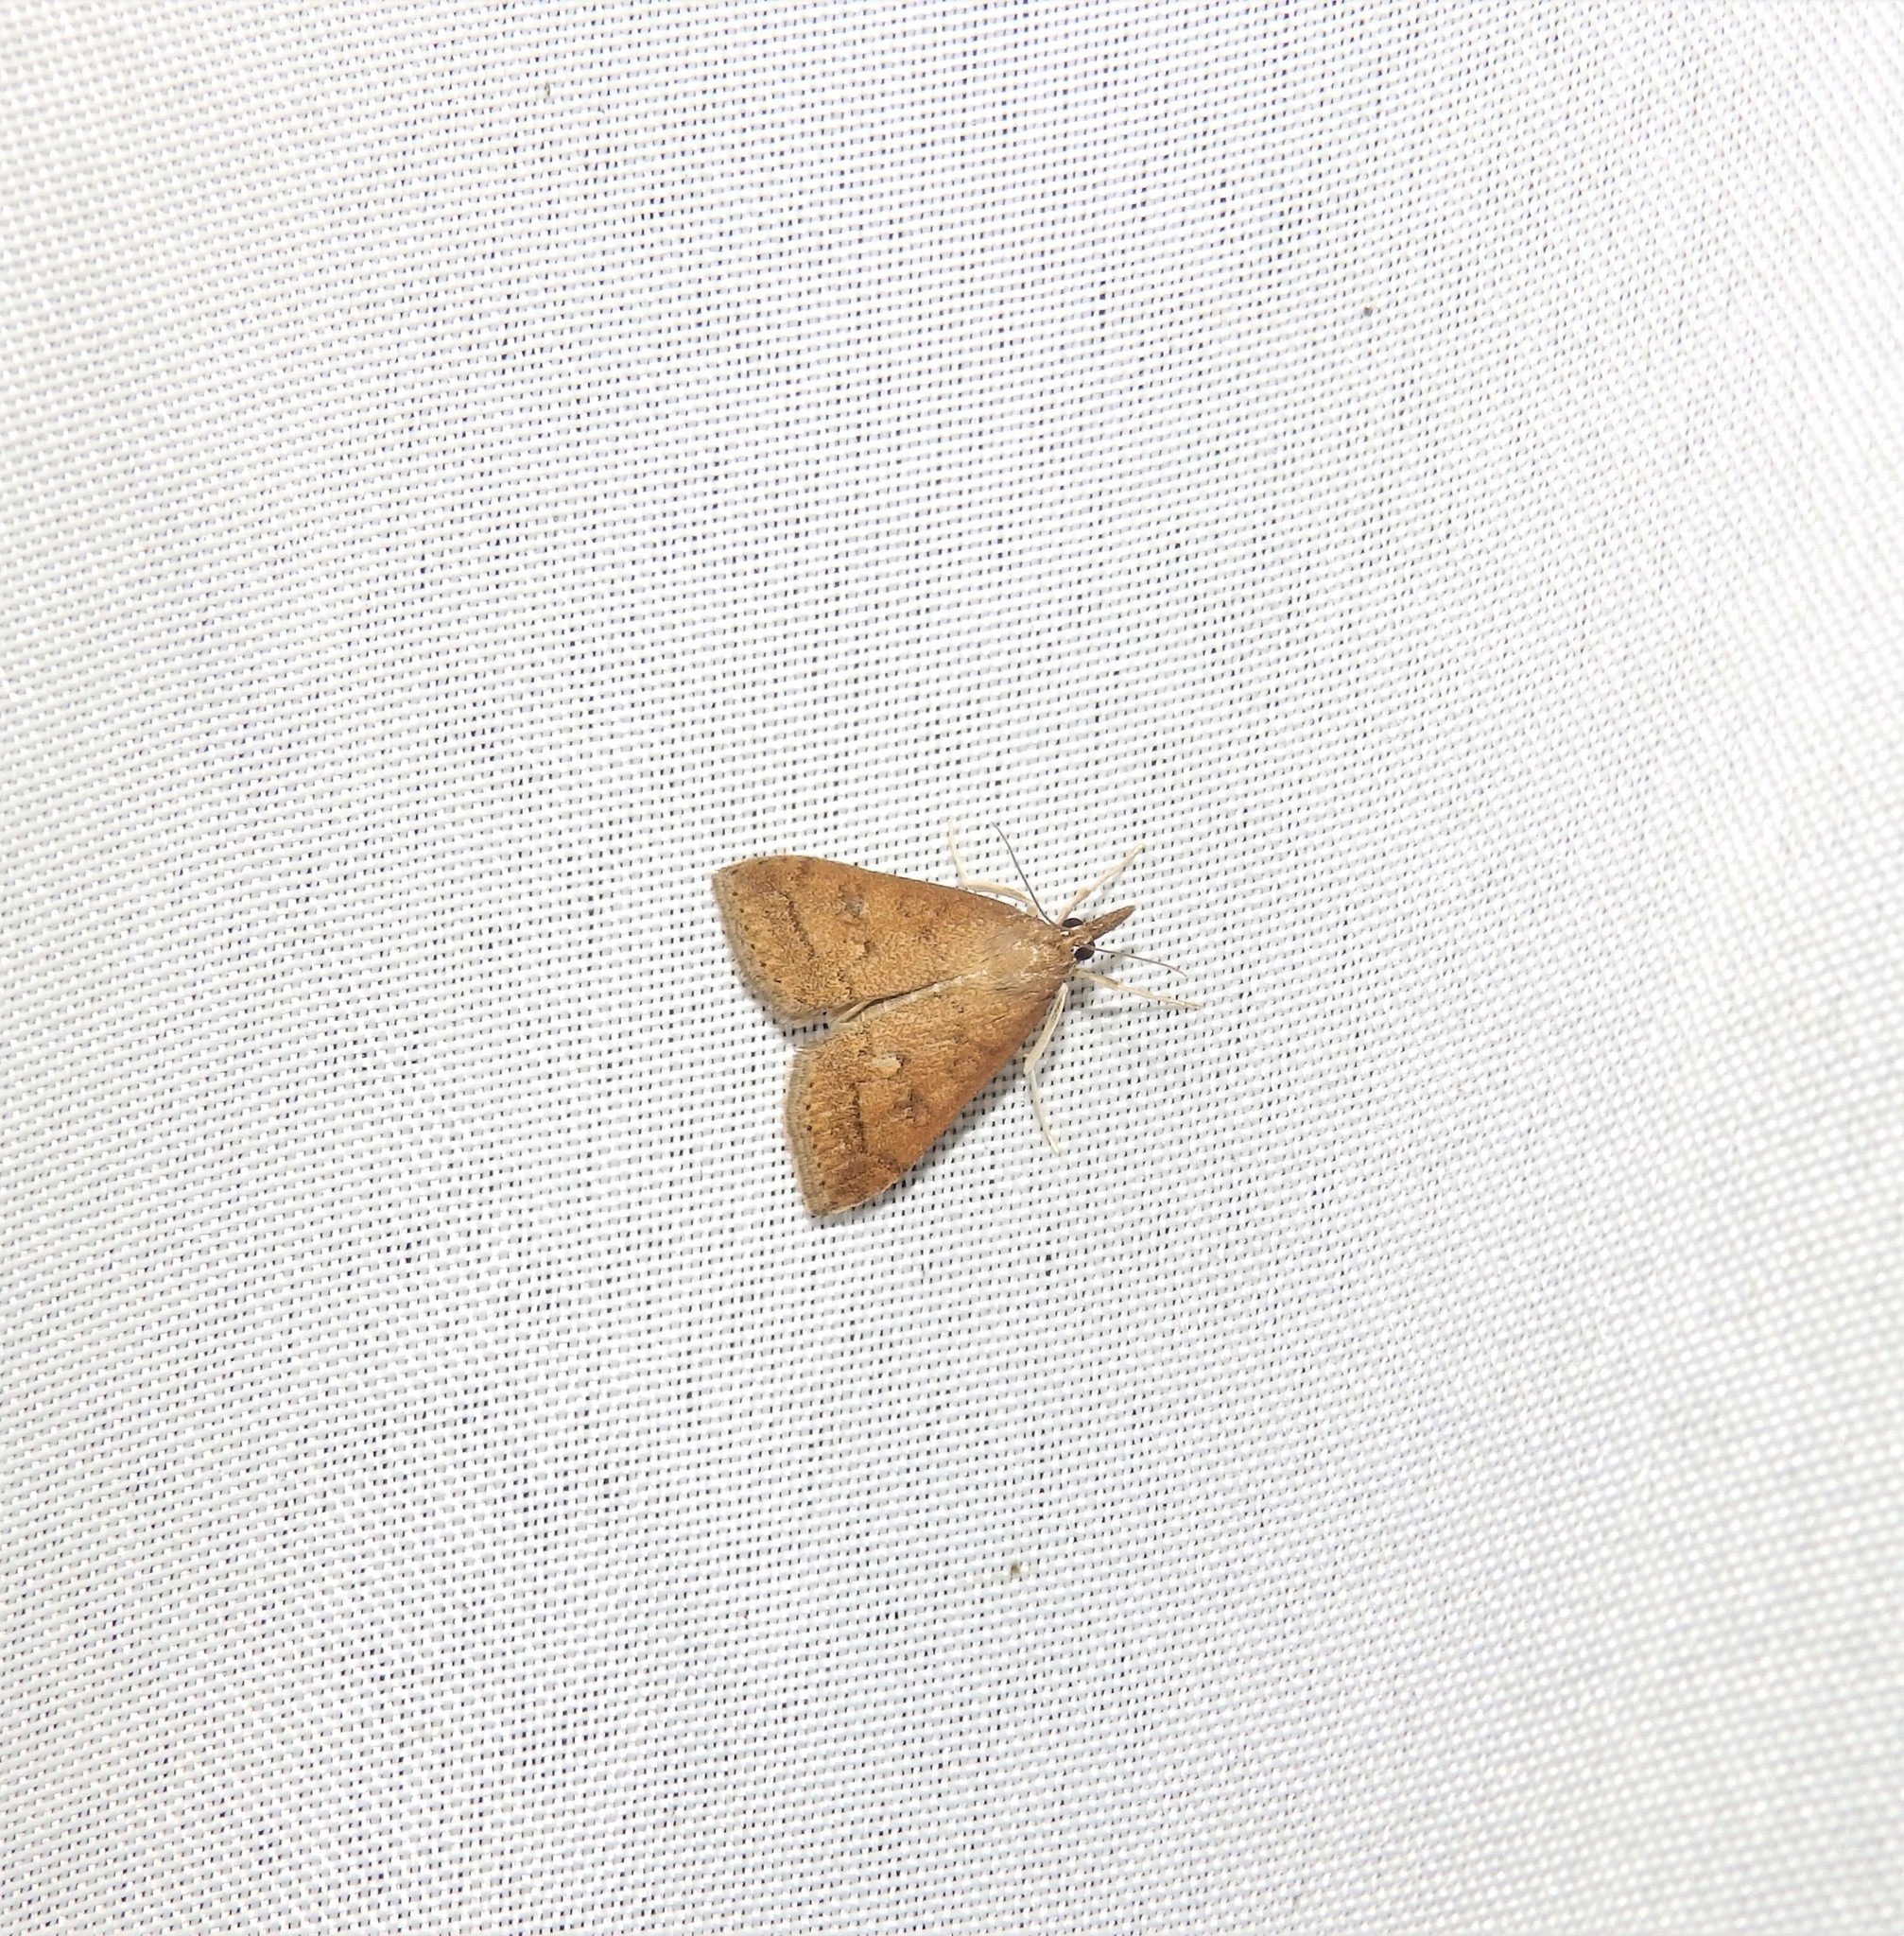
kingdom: Animalia
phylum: Arthropoda
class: Insecta
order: Lepidoptera
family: Crambidae
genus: Udea
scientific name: Udea rubigalis
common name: Celery leaftier moth
